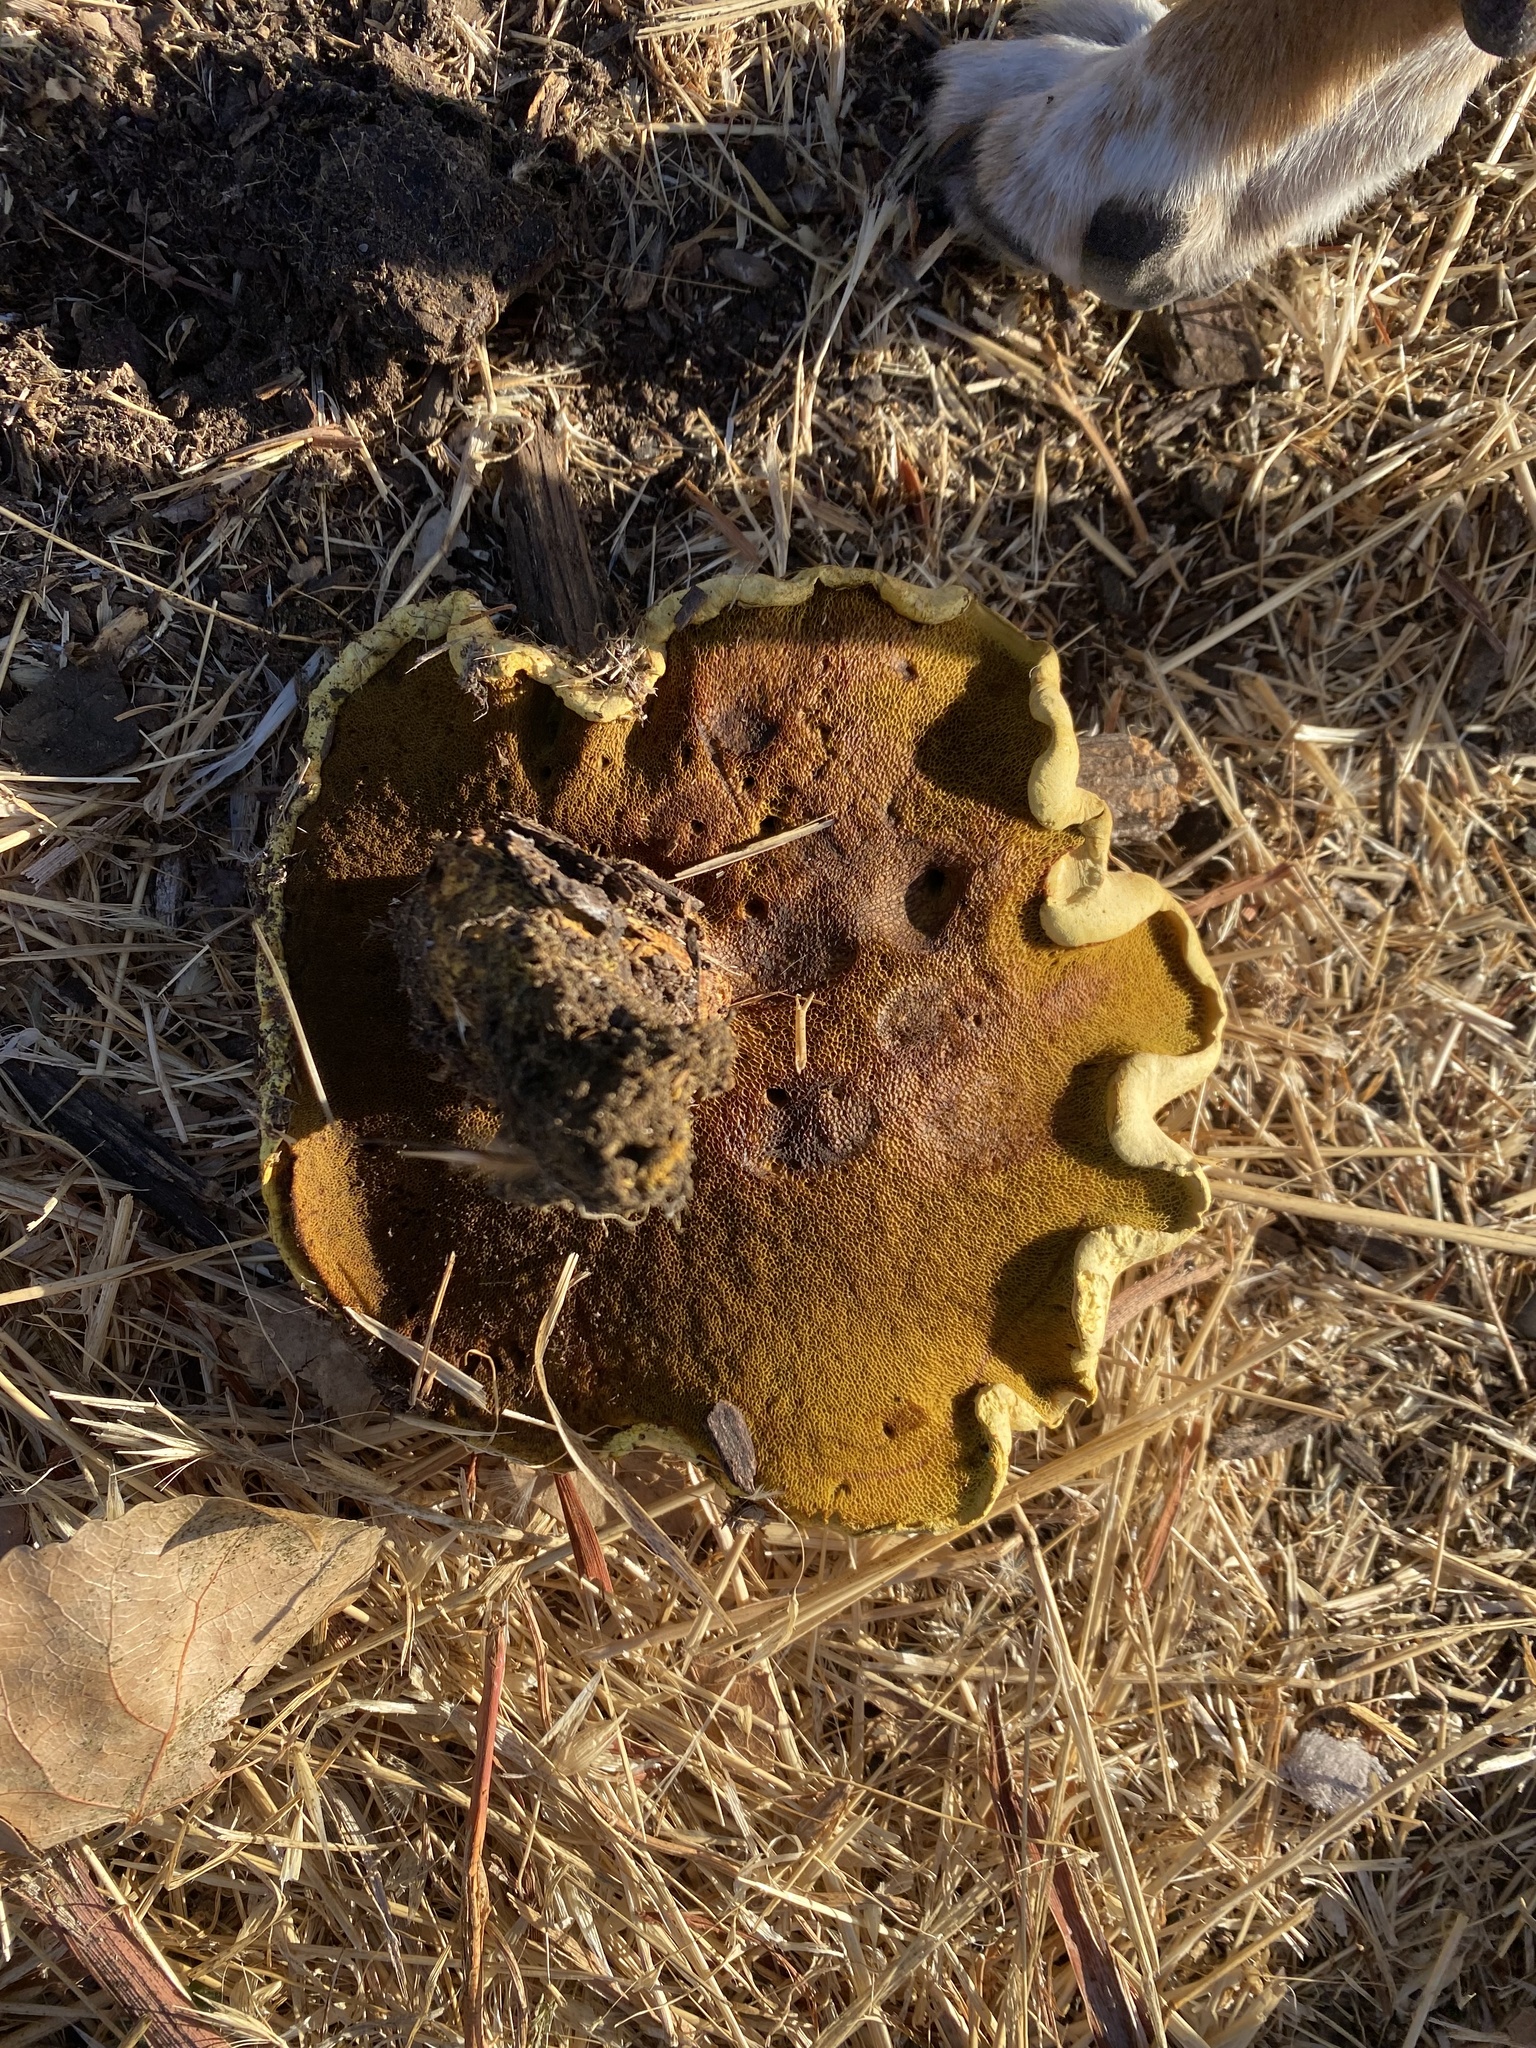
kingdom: Fungi
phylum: Basidiomycota
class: Agaricomycetes
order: Boletales
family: Boletaceae
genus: Chalciporus
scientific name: Chalciporus sphaerocephalus
